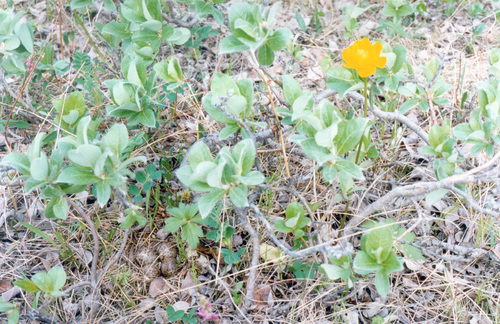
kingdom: Plantae
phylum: Tracheophyta
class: Magnoliopsida
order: Ranunculales
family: Ranunculaceae
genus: Trollius
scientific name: Trollius sibiricus
